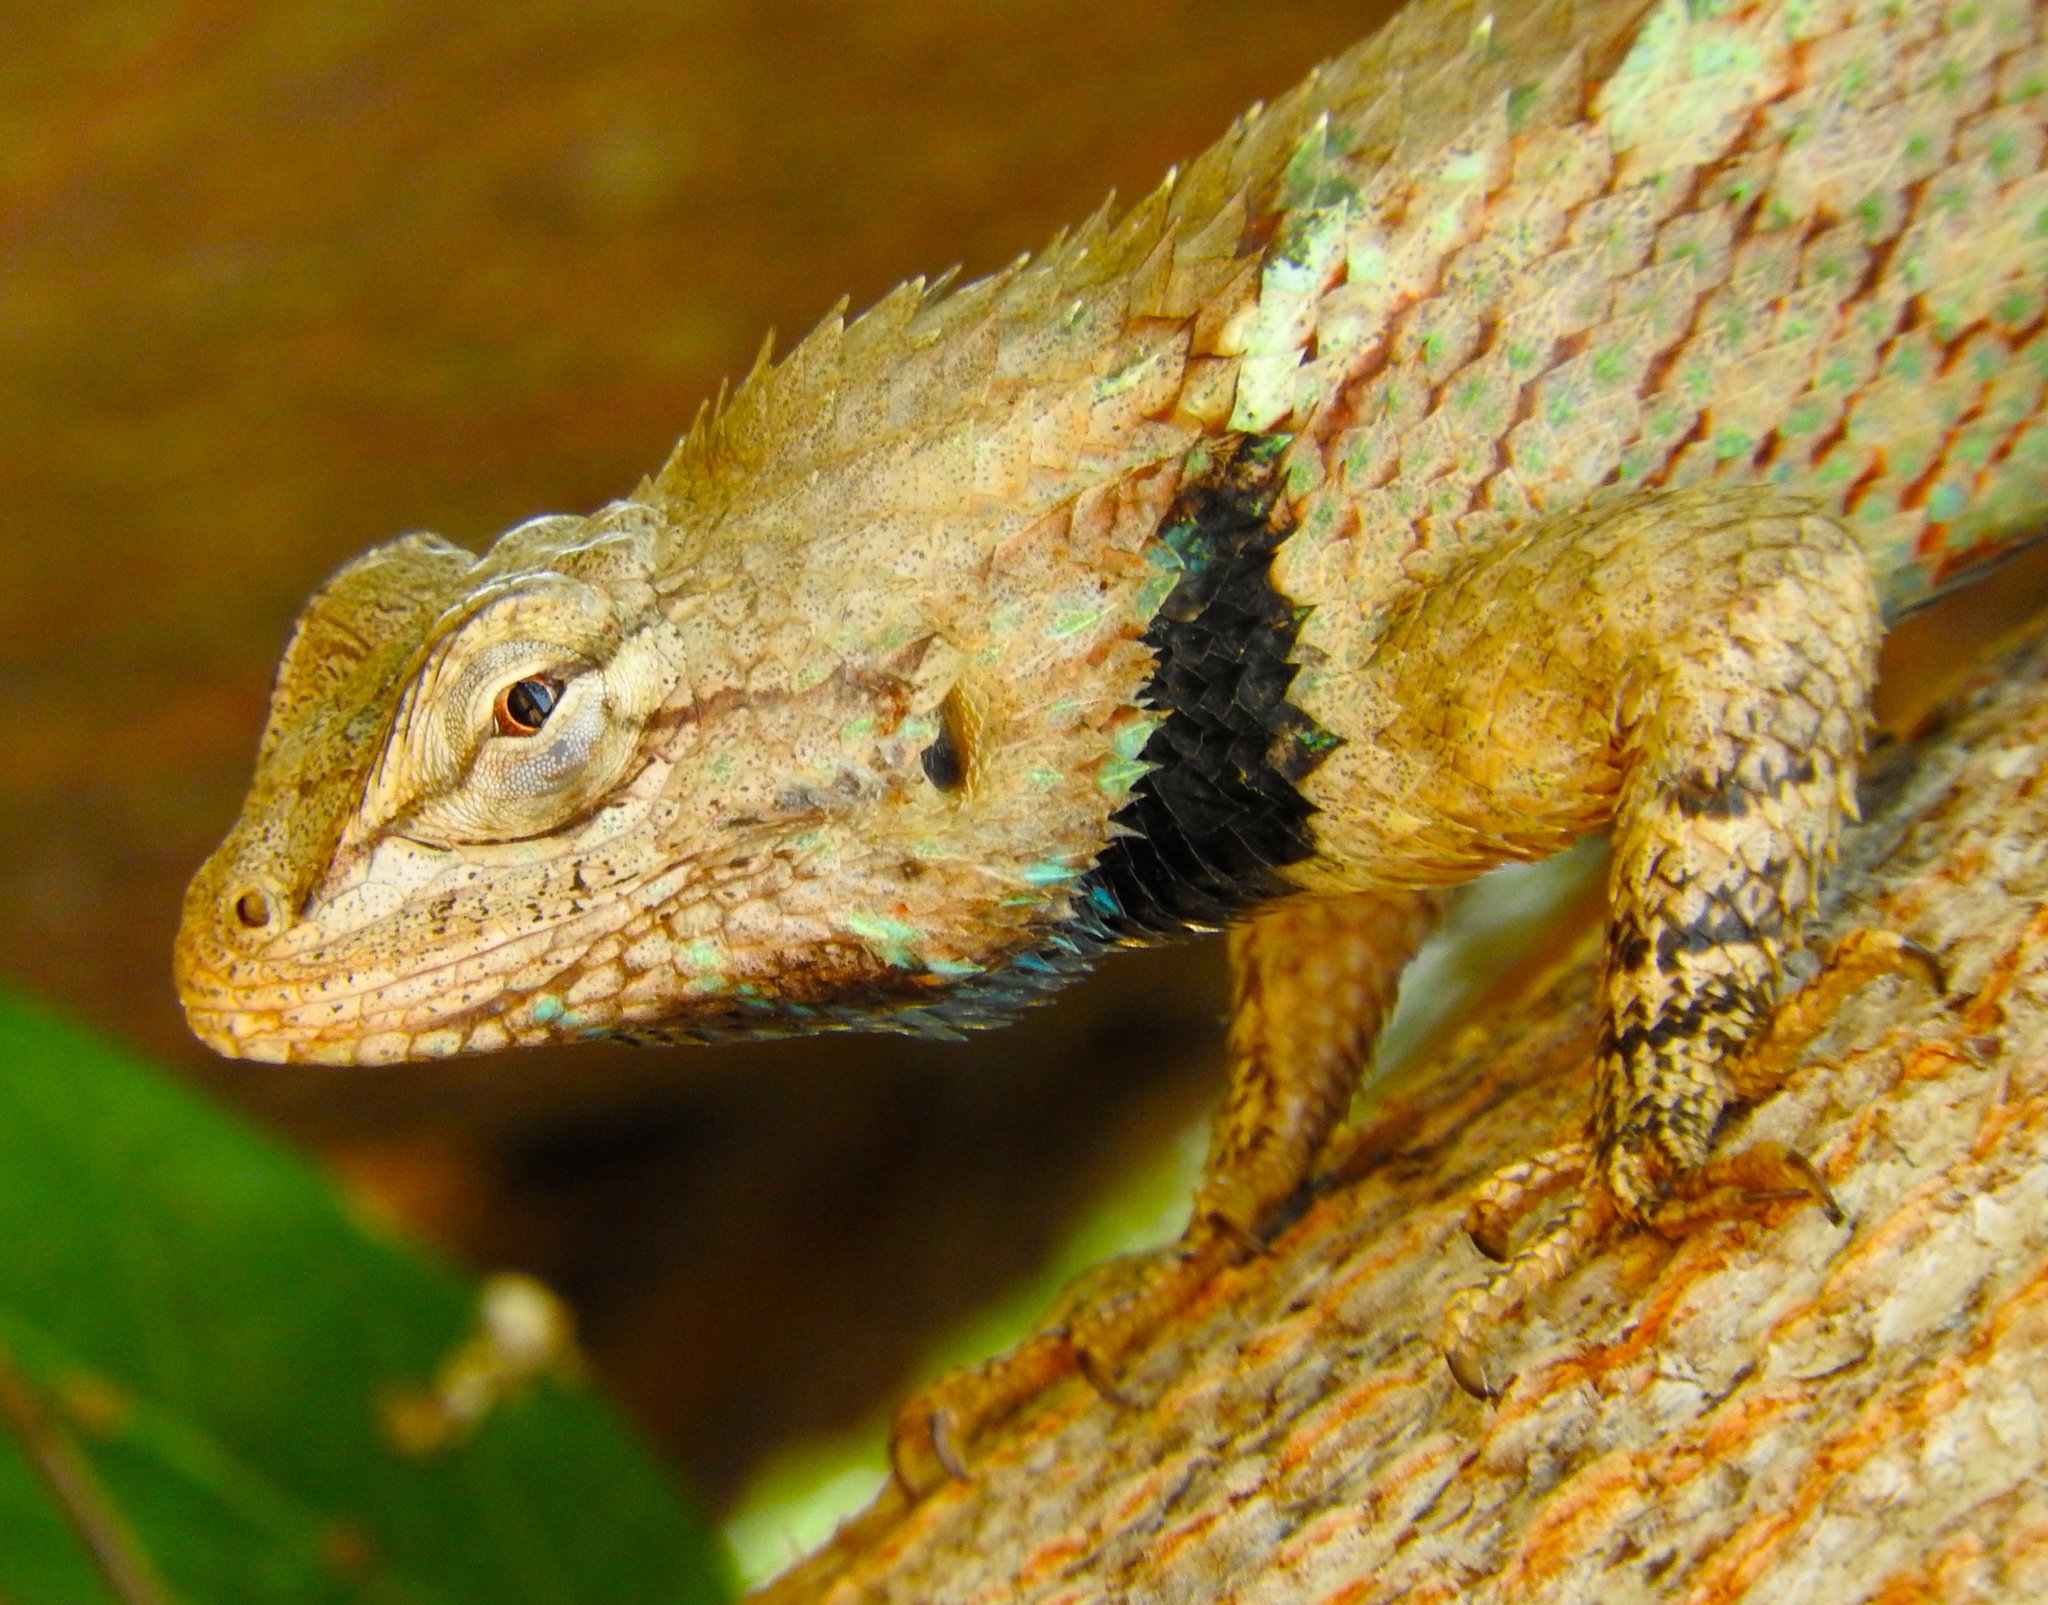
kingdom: Animalia
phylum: Chordata
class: Squamata
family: Phrynosomatidae
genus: Sceloporus
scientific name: Sceloporus clarkii
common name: Clark's spiny lizard
